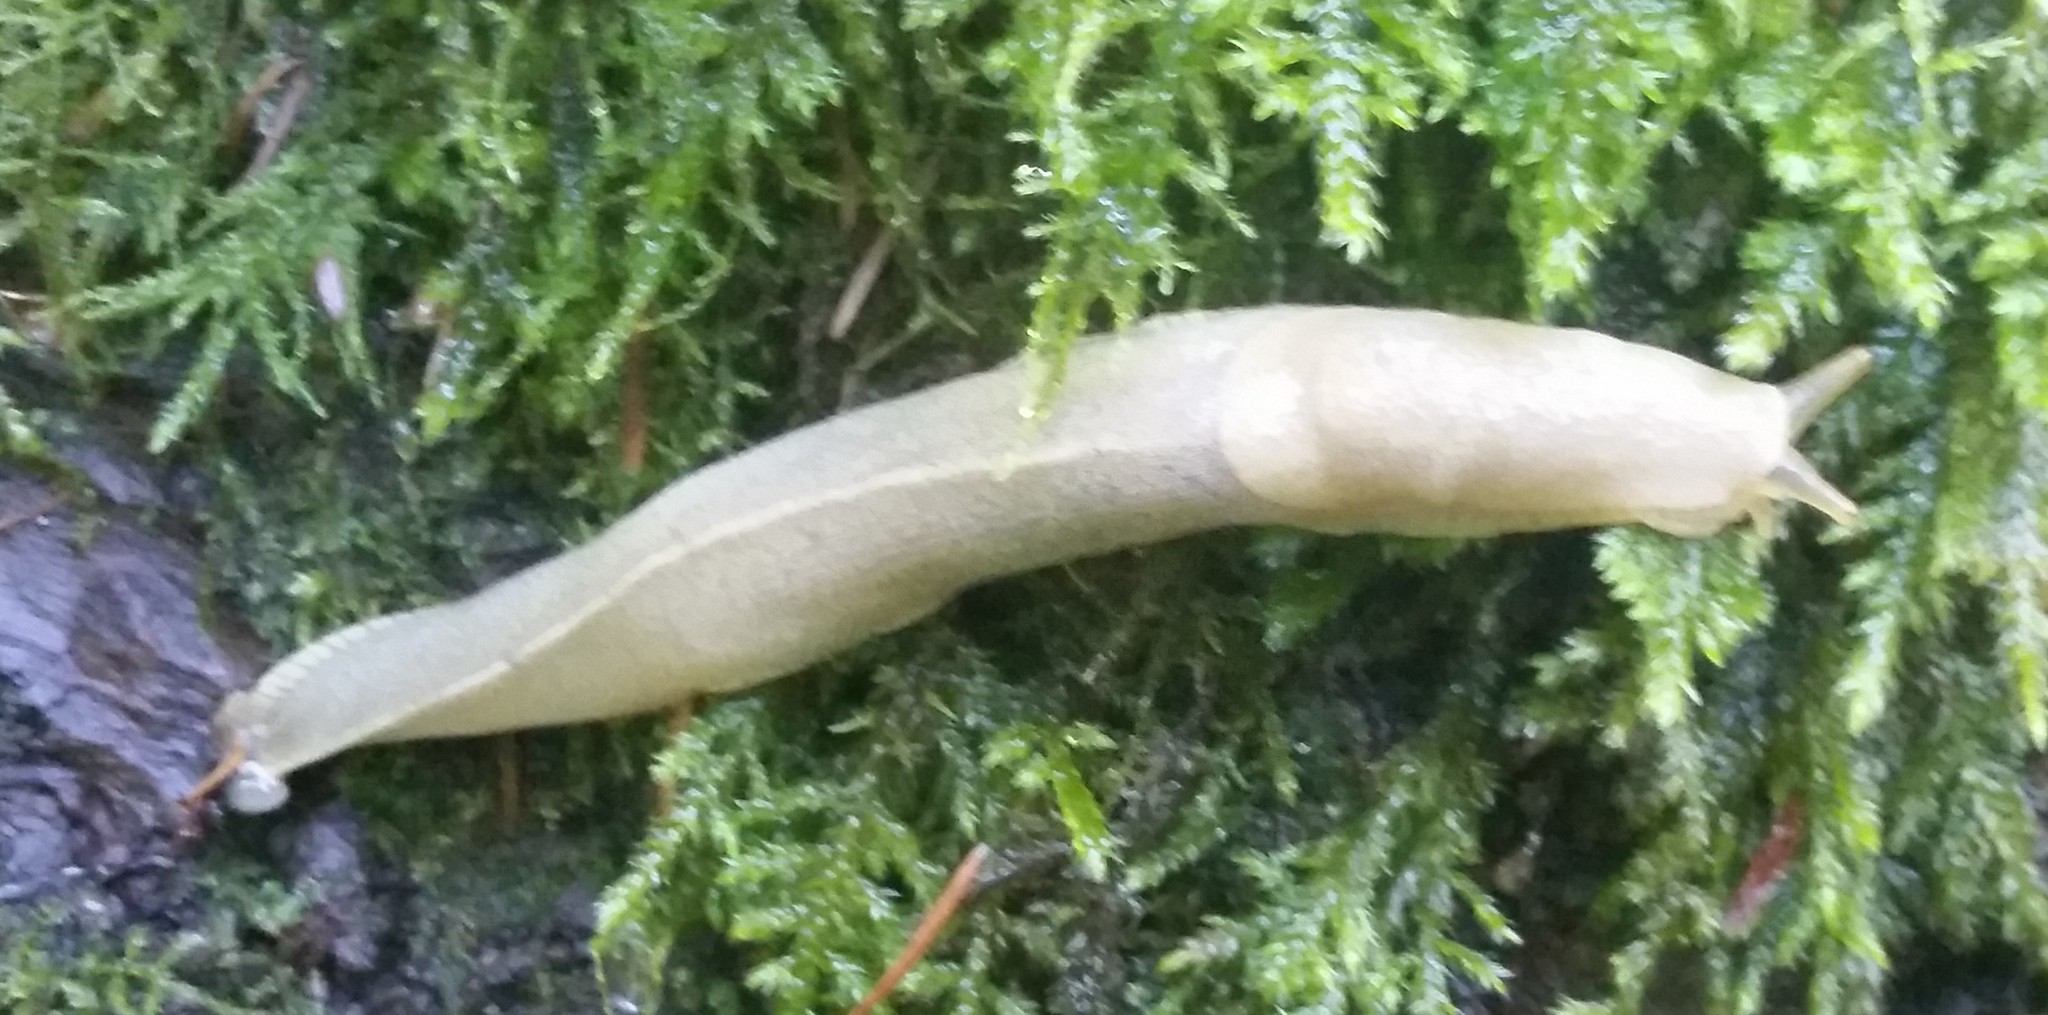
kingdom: Animalia
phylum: Mollusca
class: Gastropoda
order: Stylommatophora
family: Ariolimacidae
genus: Ariolimax
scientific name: Ariolimax columbianus
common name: Pacific banana slug
